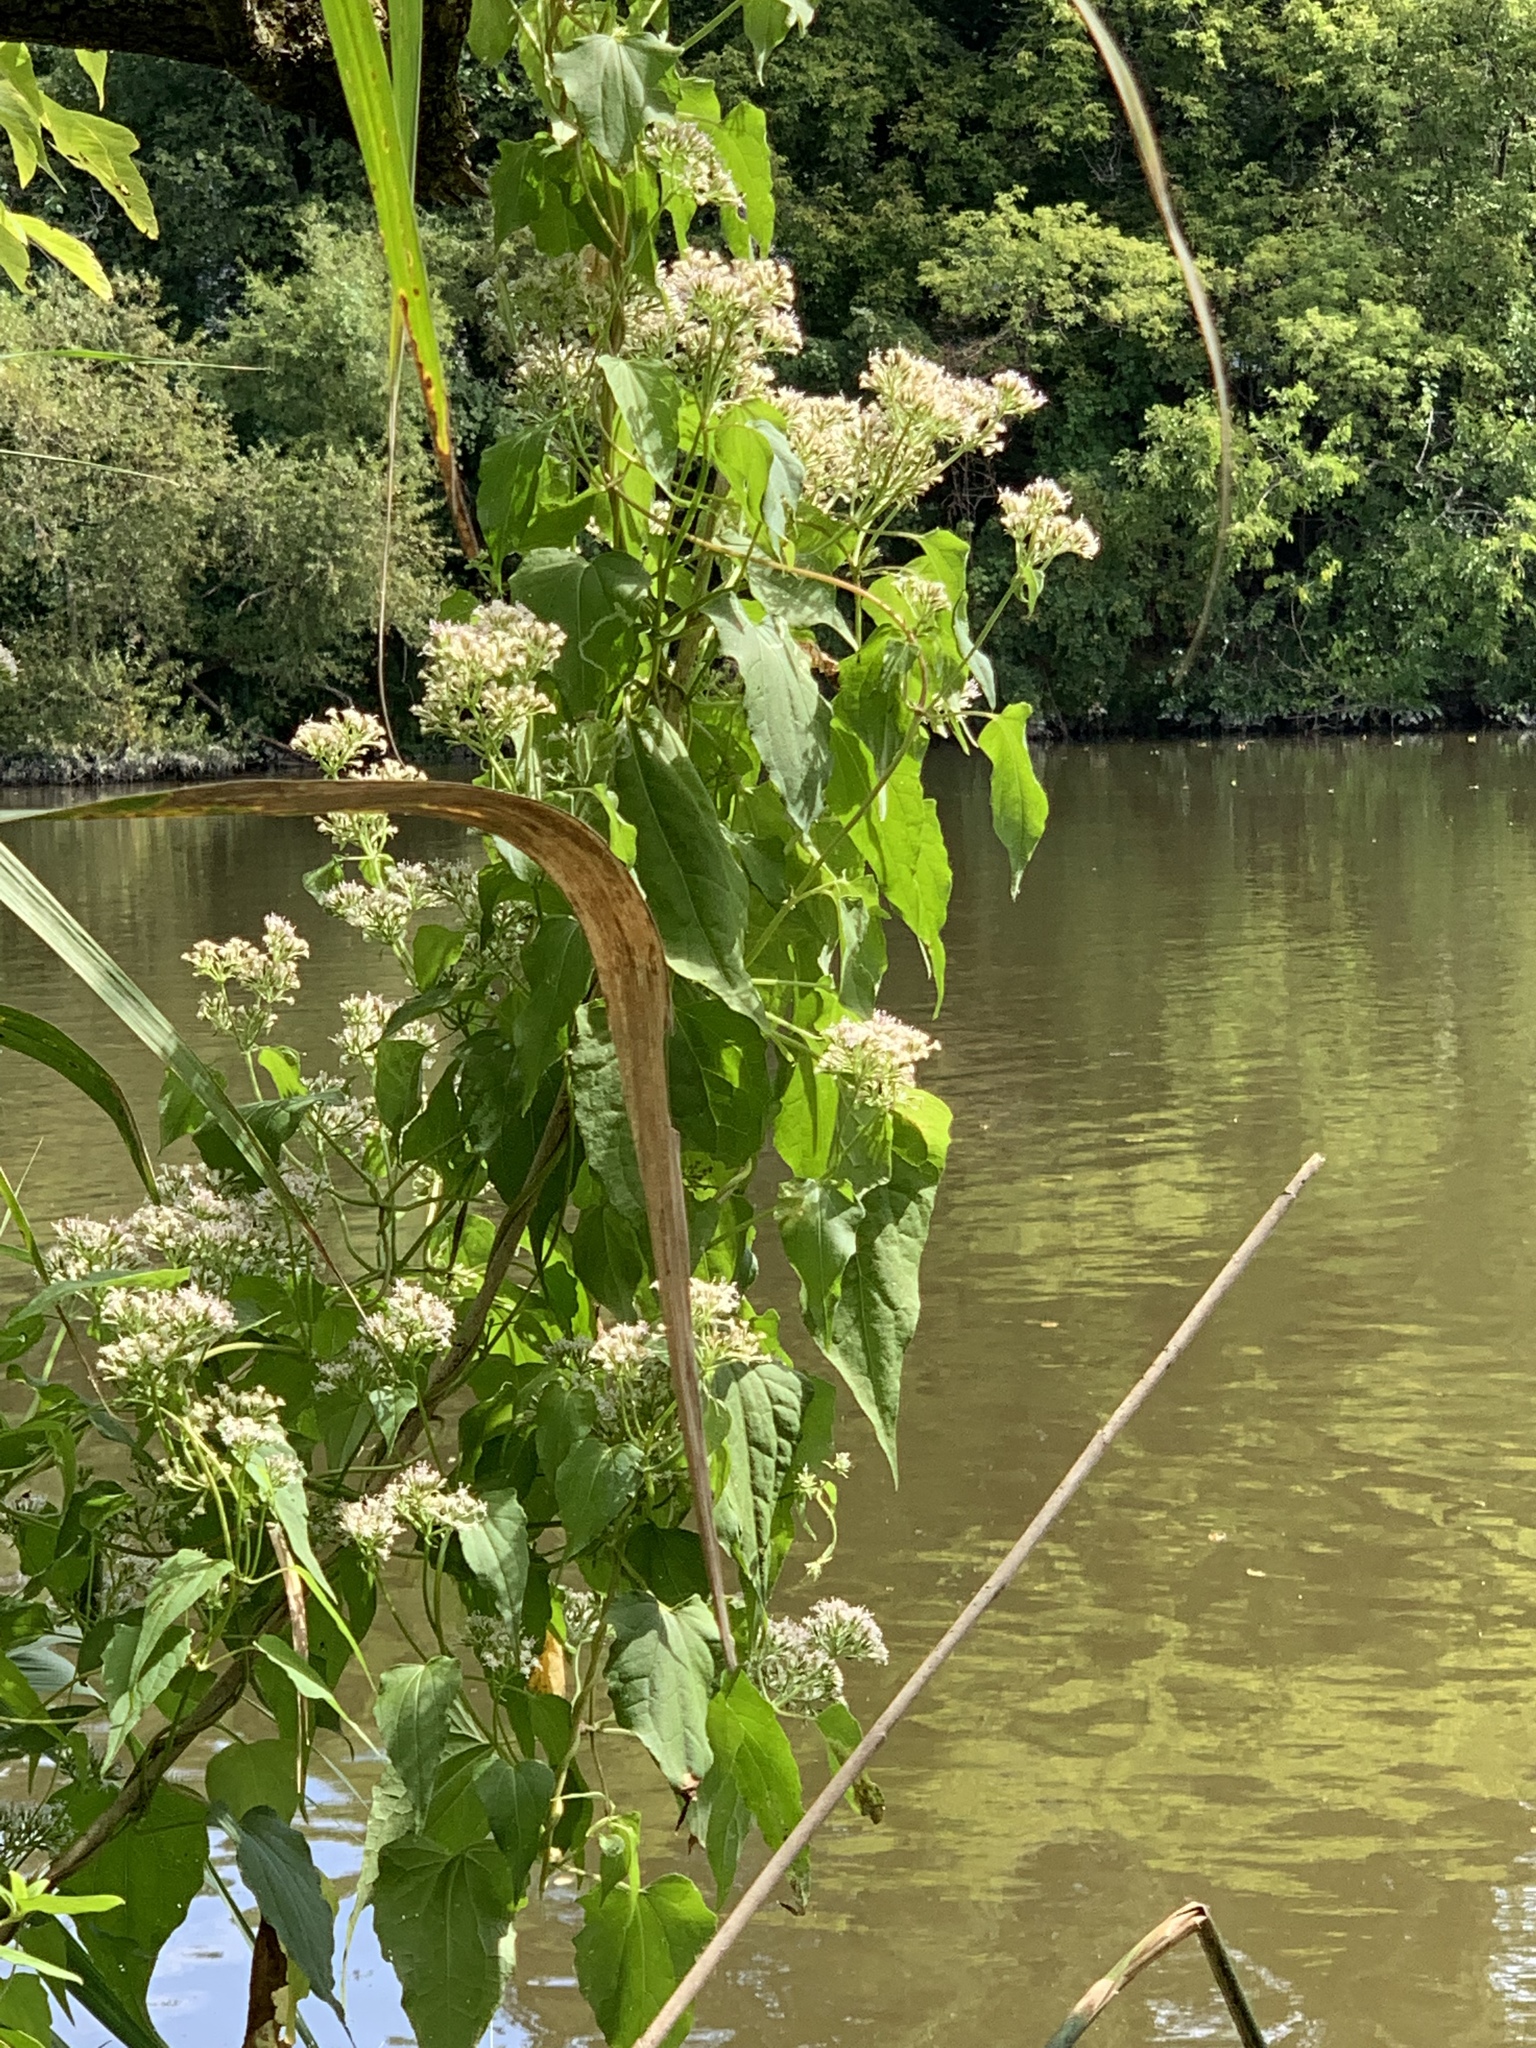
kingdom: Plantae
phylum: Tracheophyta
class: Magnoliopsida
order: Asterales
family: Asteraceae
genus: Mikania
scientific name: Mikania scandens
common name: Climbing hempvine
